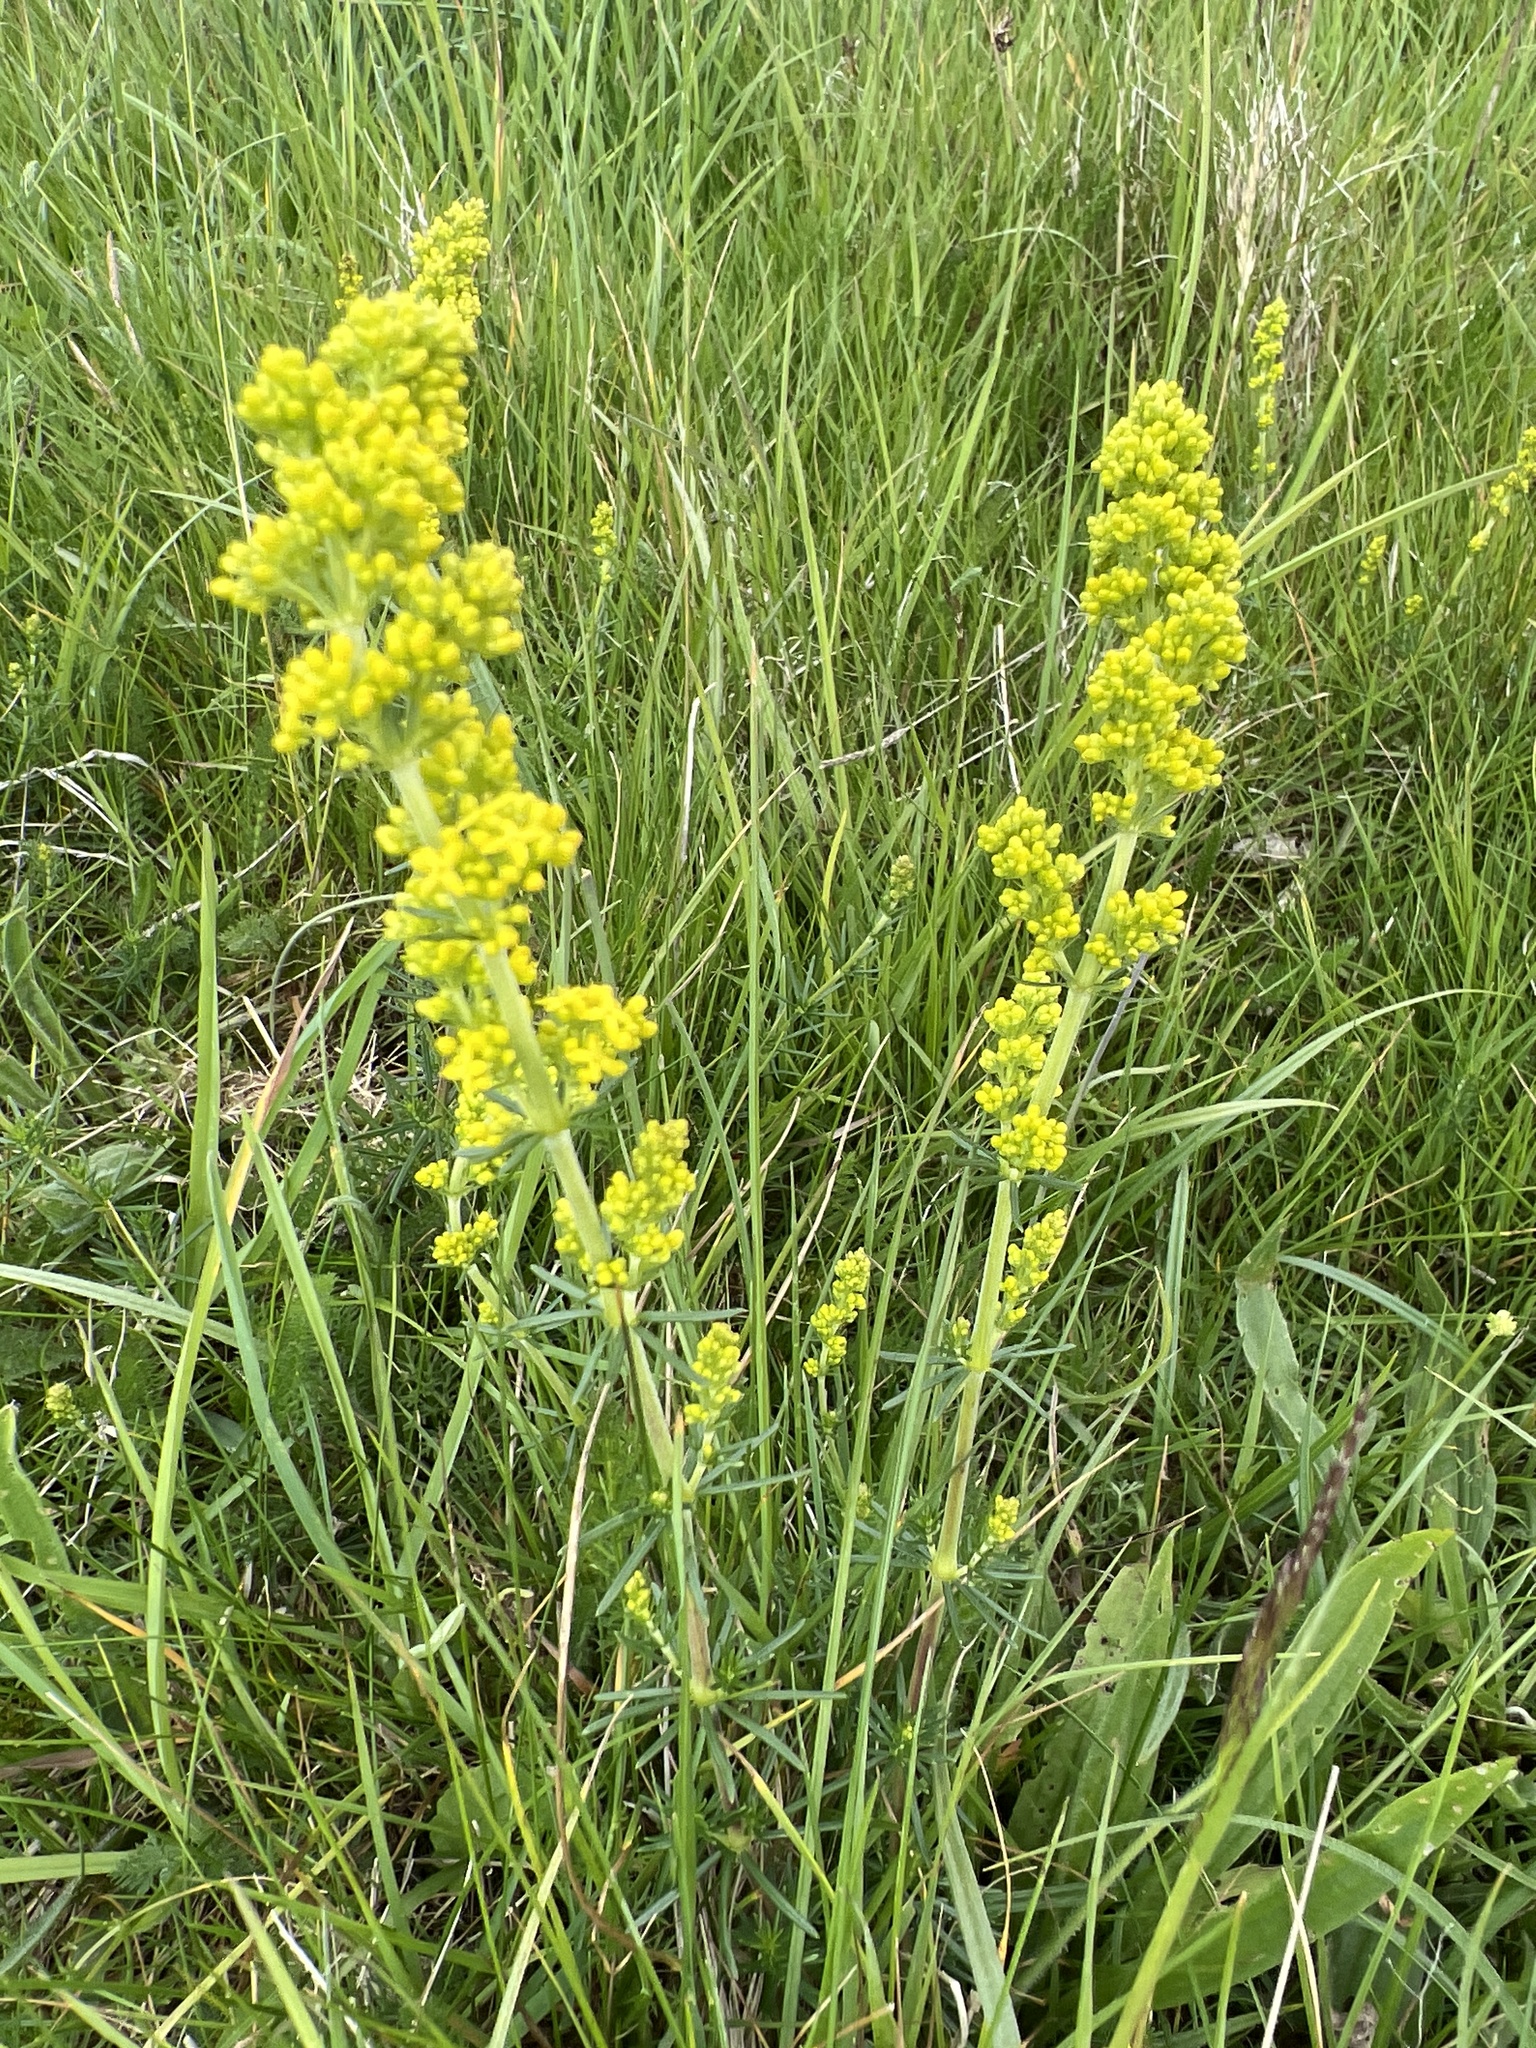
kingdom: Plantae
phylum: Tracheophyta
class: Magnoliopsida
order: Gentianales
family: Rubiaceae
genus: Galium
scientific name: Galium verum
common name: Lady's bedstraw
